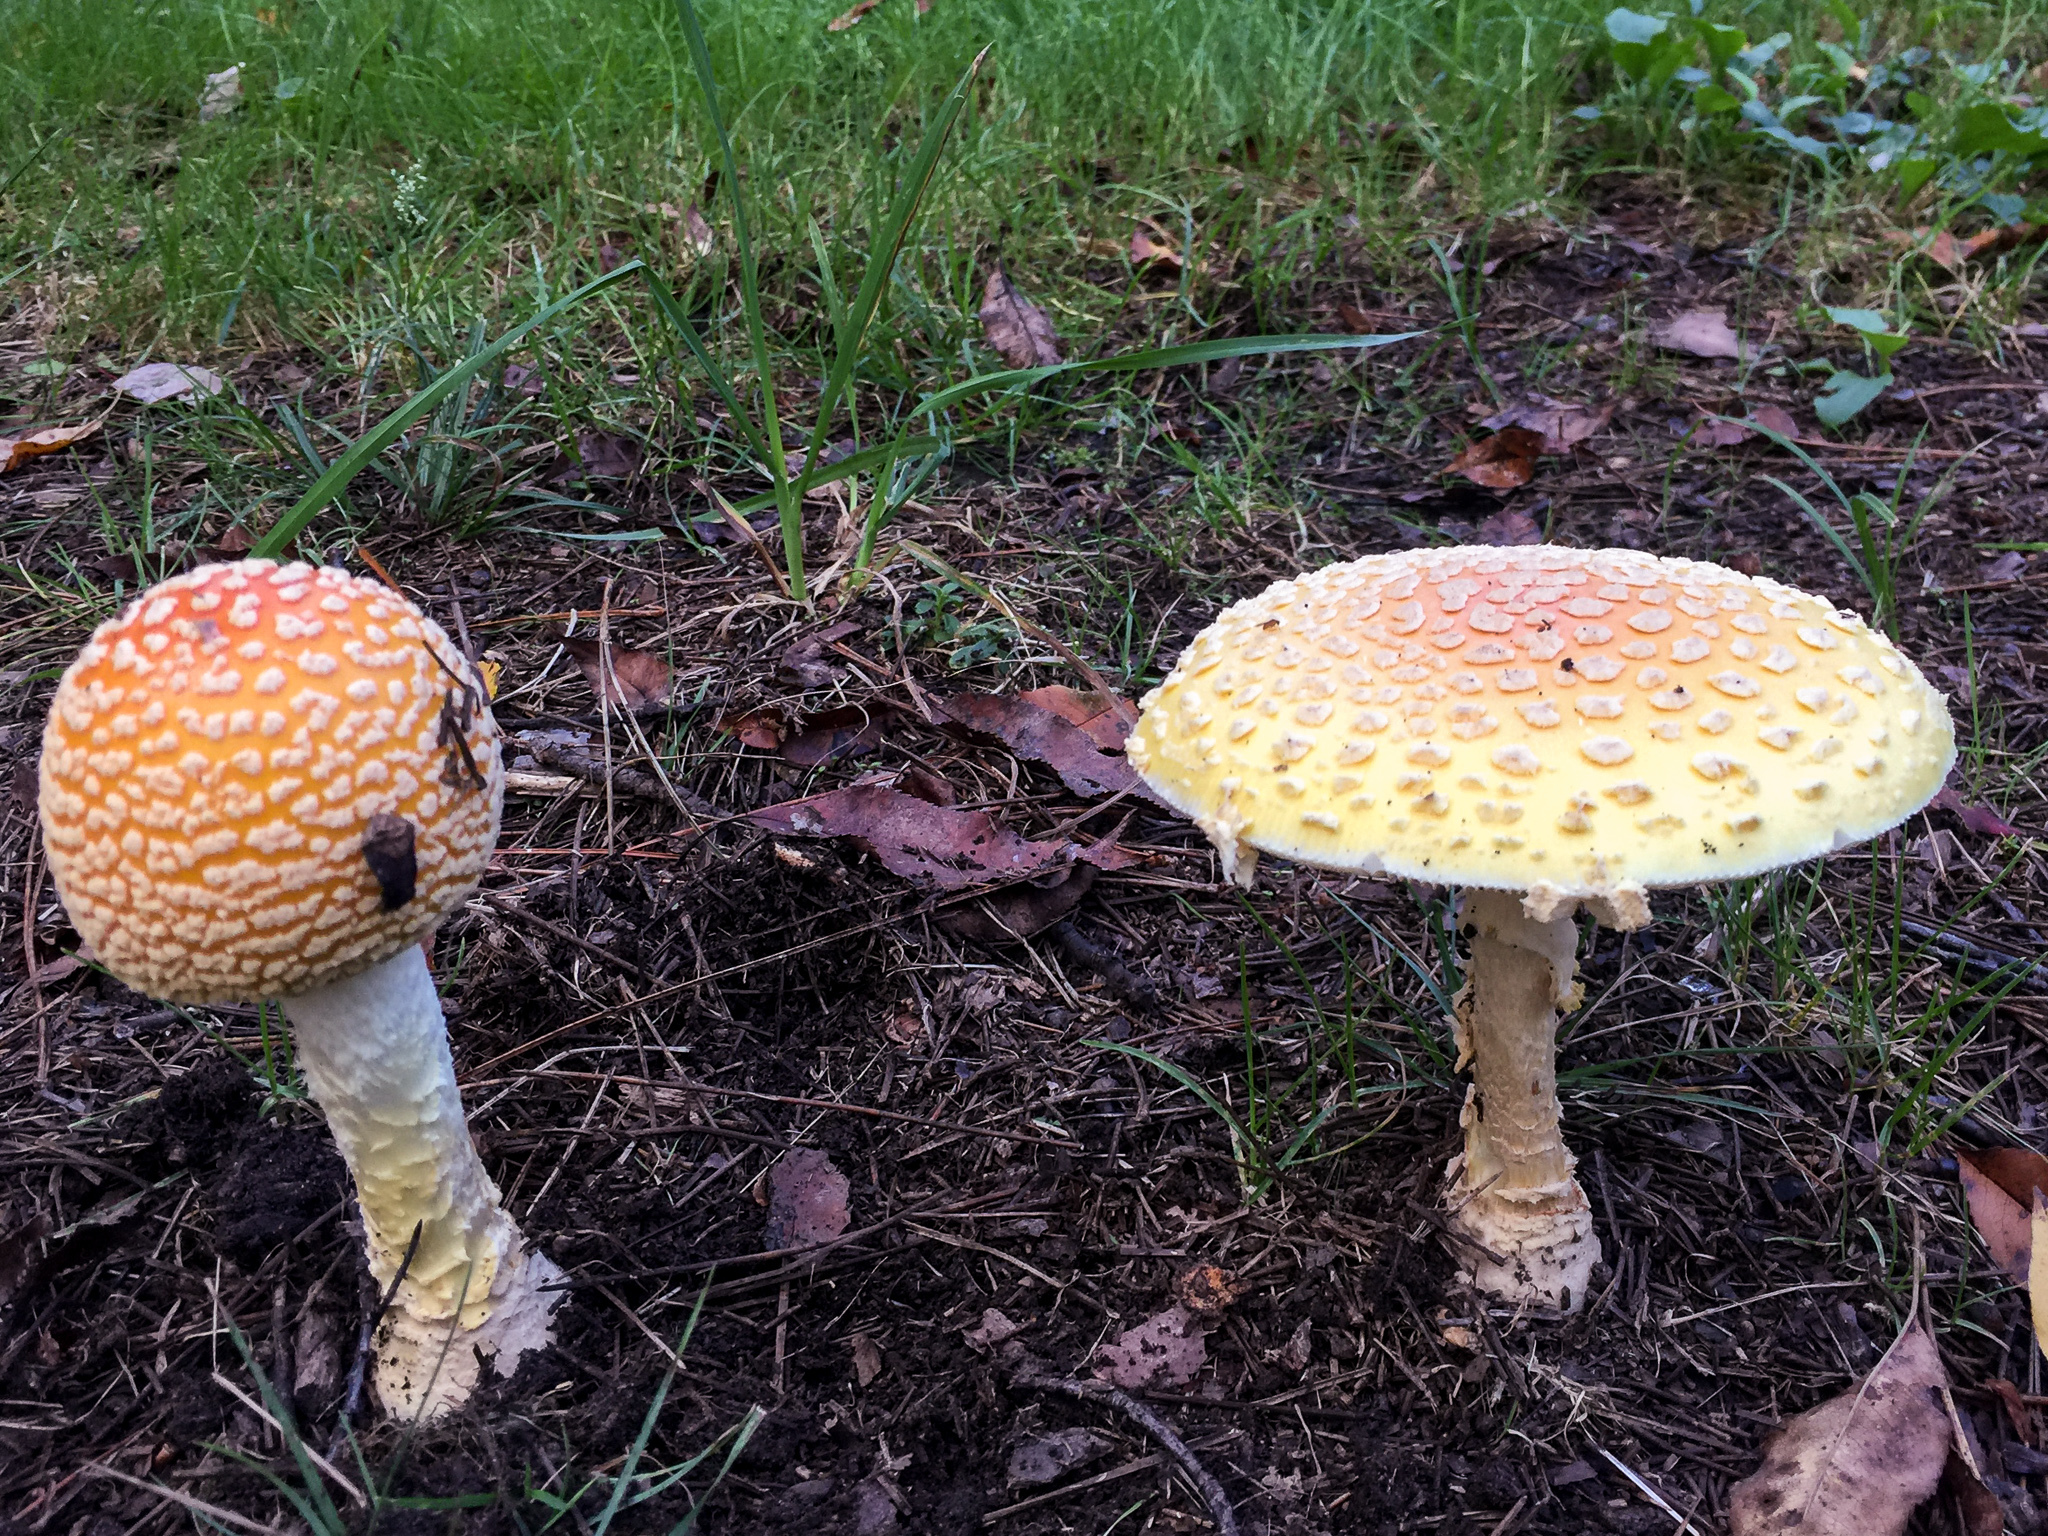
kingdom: Fungi
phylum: Basidiomycota
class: Agaricomycetes
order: Agaricales
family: Amanitaceae
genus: Amanita
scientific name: Amanita muscaria
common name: Fly agaric
